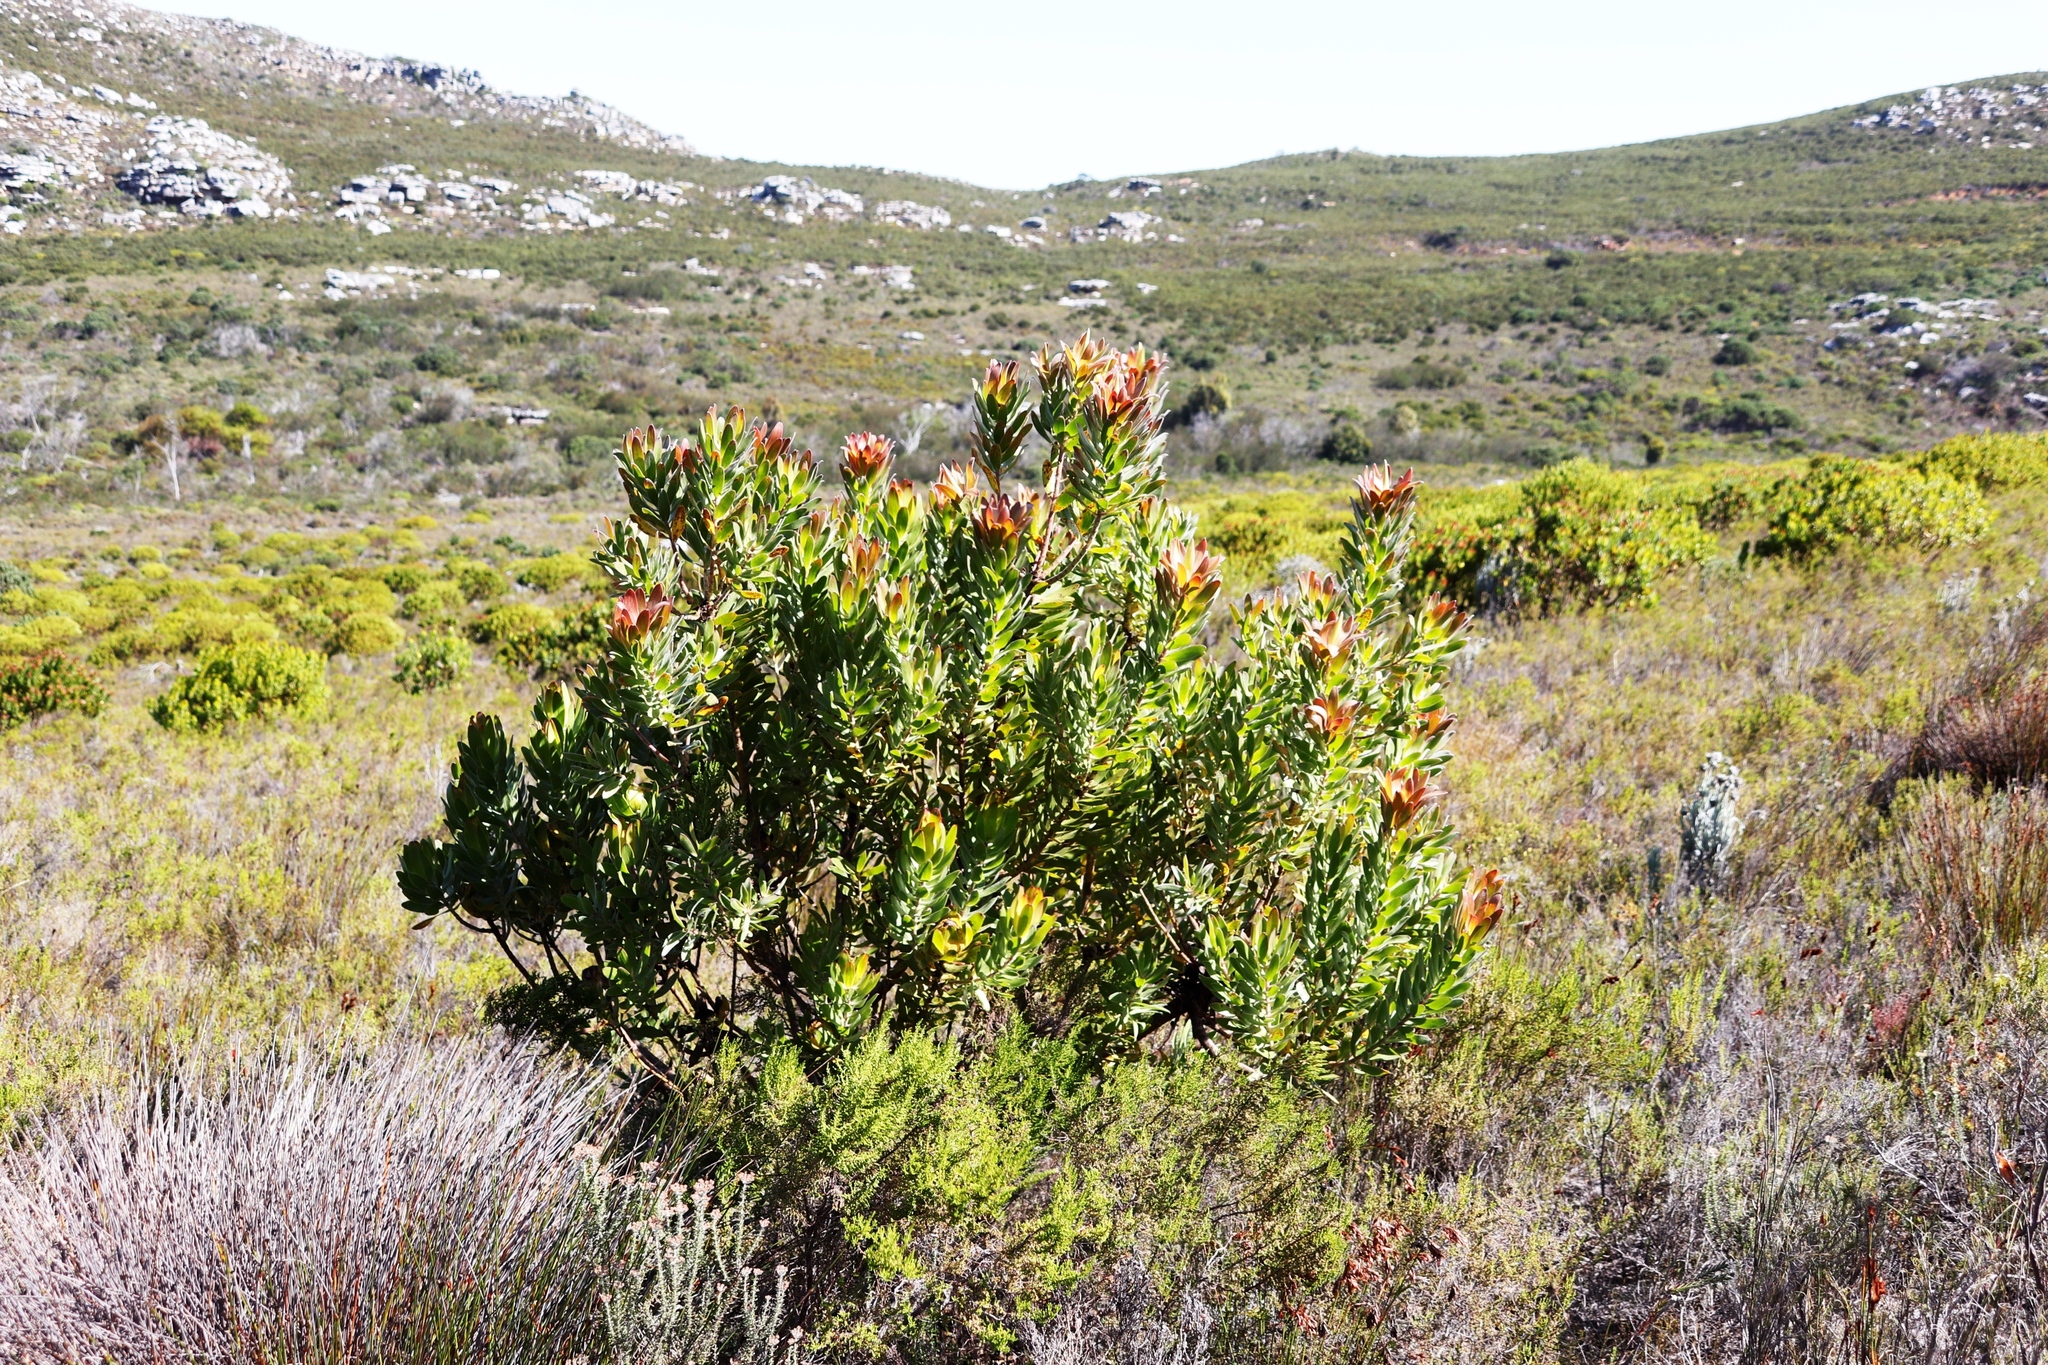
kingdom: Plantae
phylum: Tracheophyta
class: Magnoliopsida
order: Proteales
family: Proteaceae
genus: Leucadendron
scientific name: Leucadendron laureolum
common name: Golden sunshinebush
